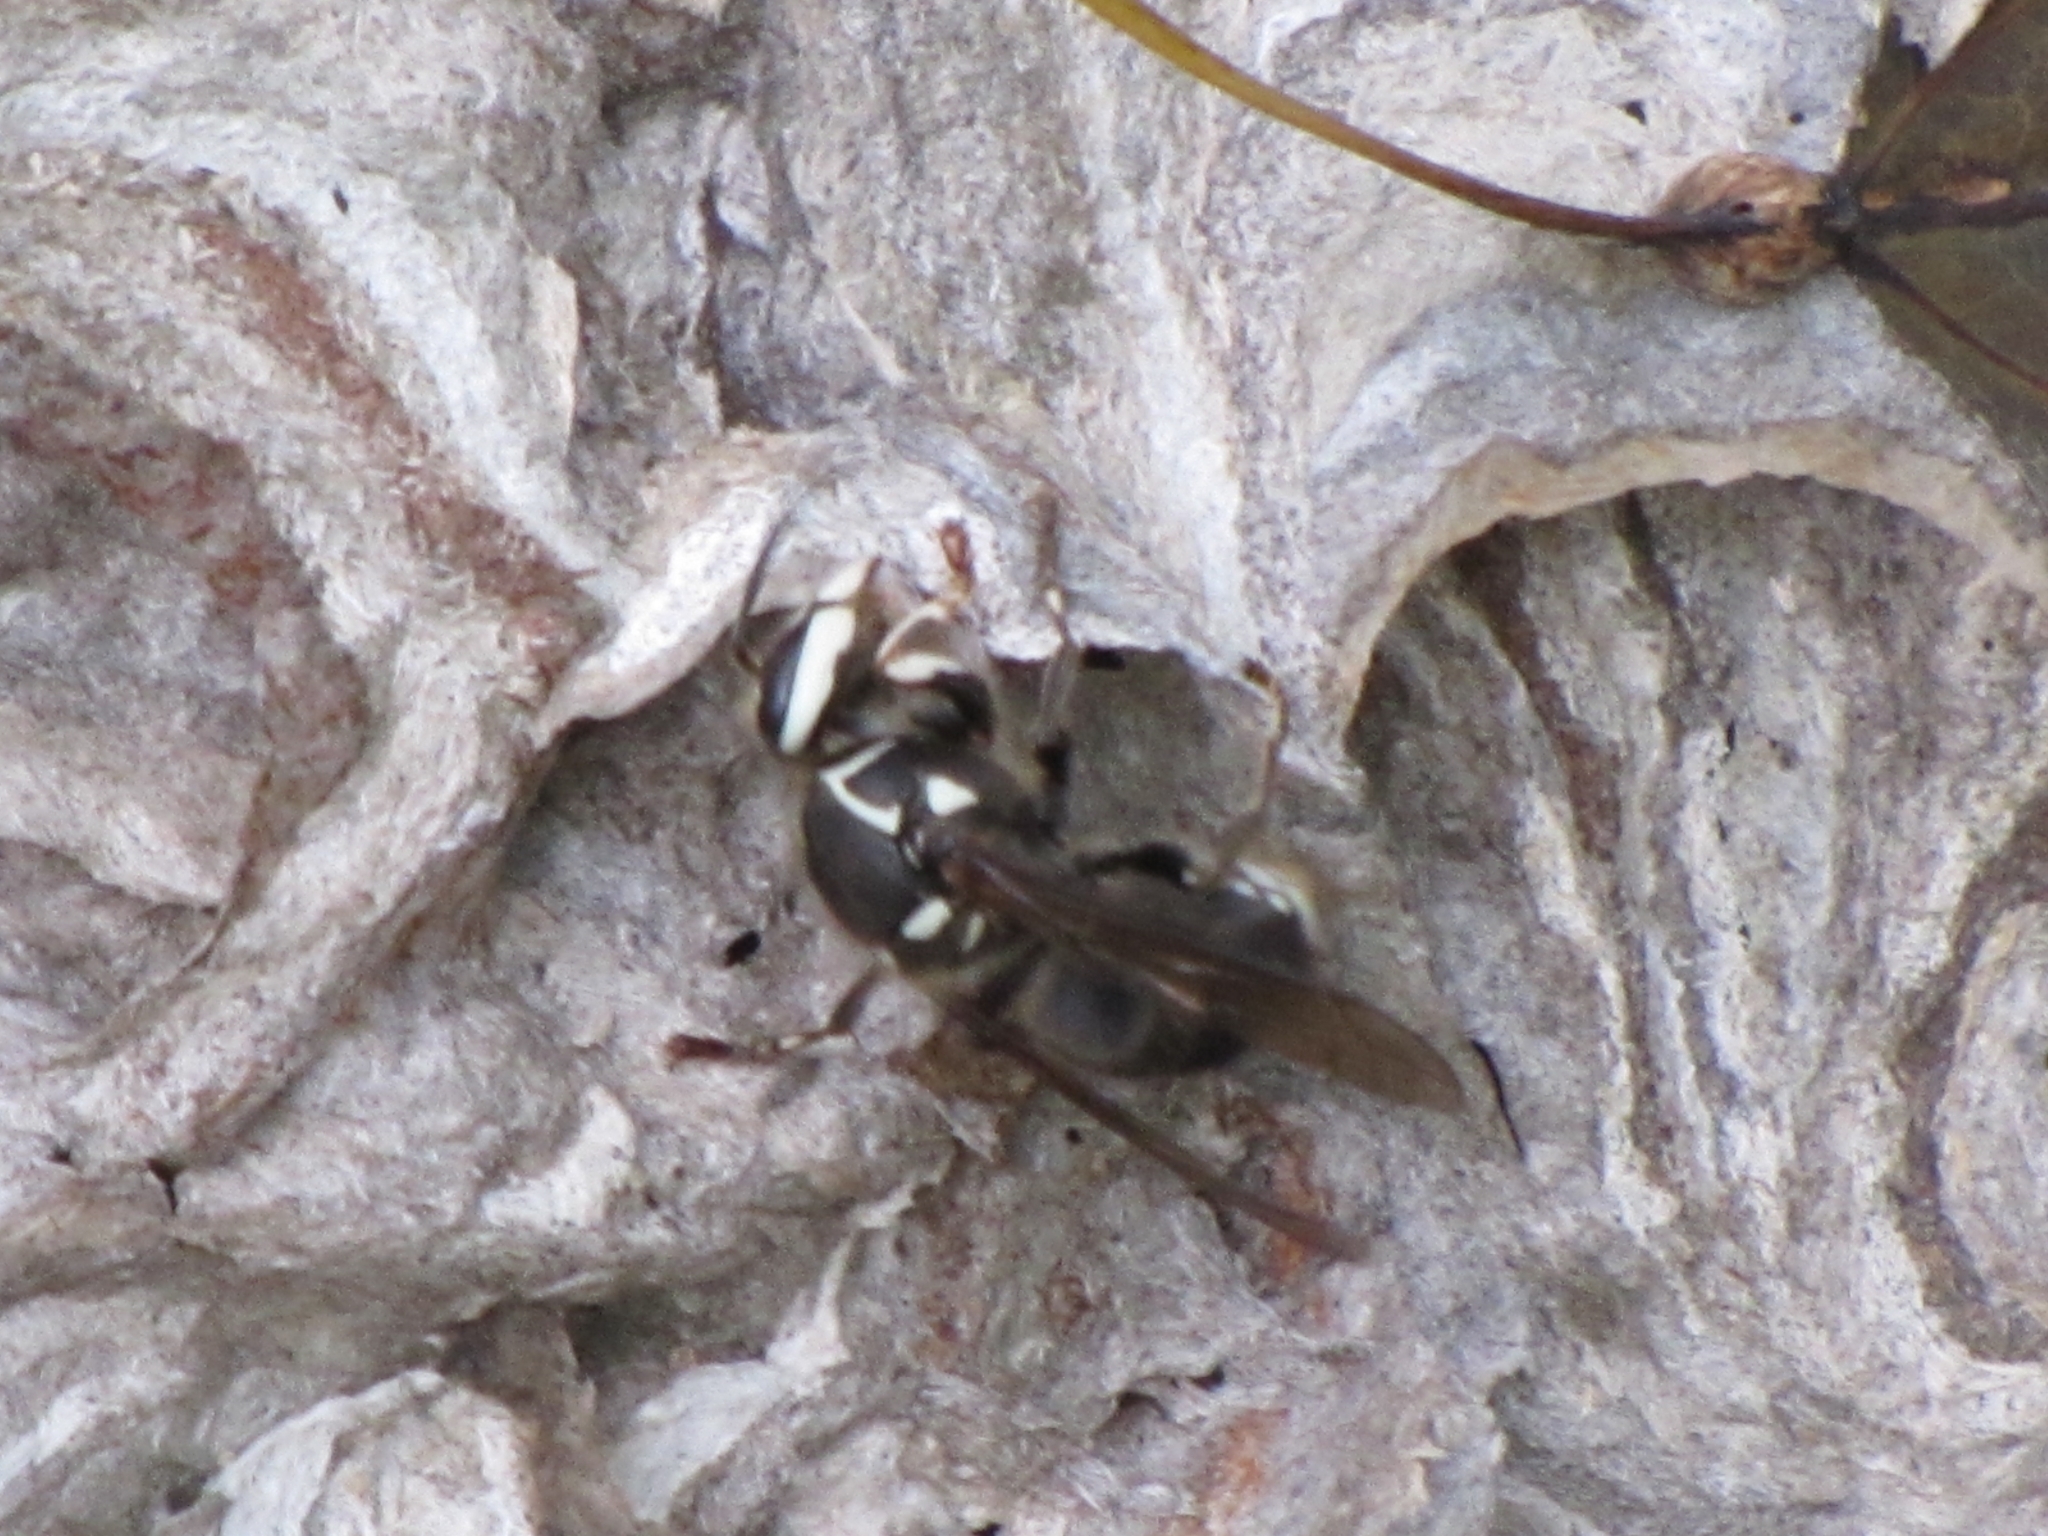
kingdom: Animalia
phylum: Arthropoda
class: Insecta
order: Hymenoptera
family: Vespidae
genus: Dolichovespula
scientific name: Dolichovespula maculata
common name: Bald-faced hornet
